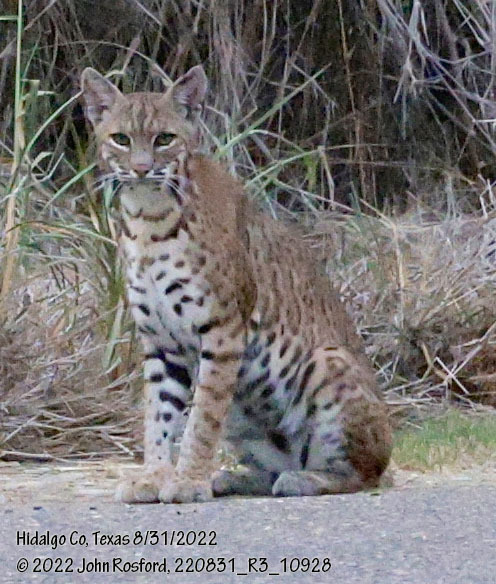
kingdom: Animalia
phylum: Chordata
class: Mammalia
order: Carnivora
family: Felidae
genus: Lynx
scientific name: Lynx rufus
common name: Bobcat
